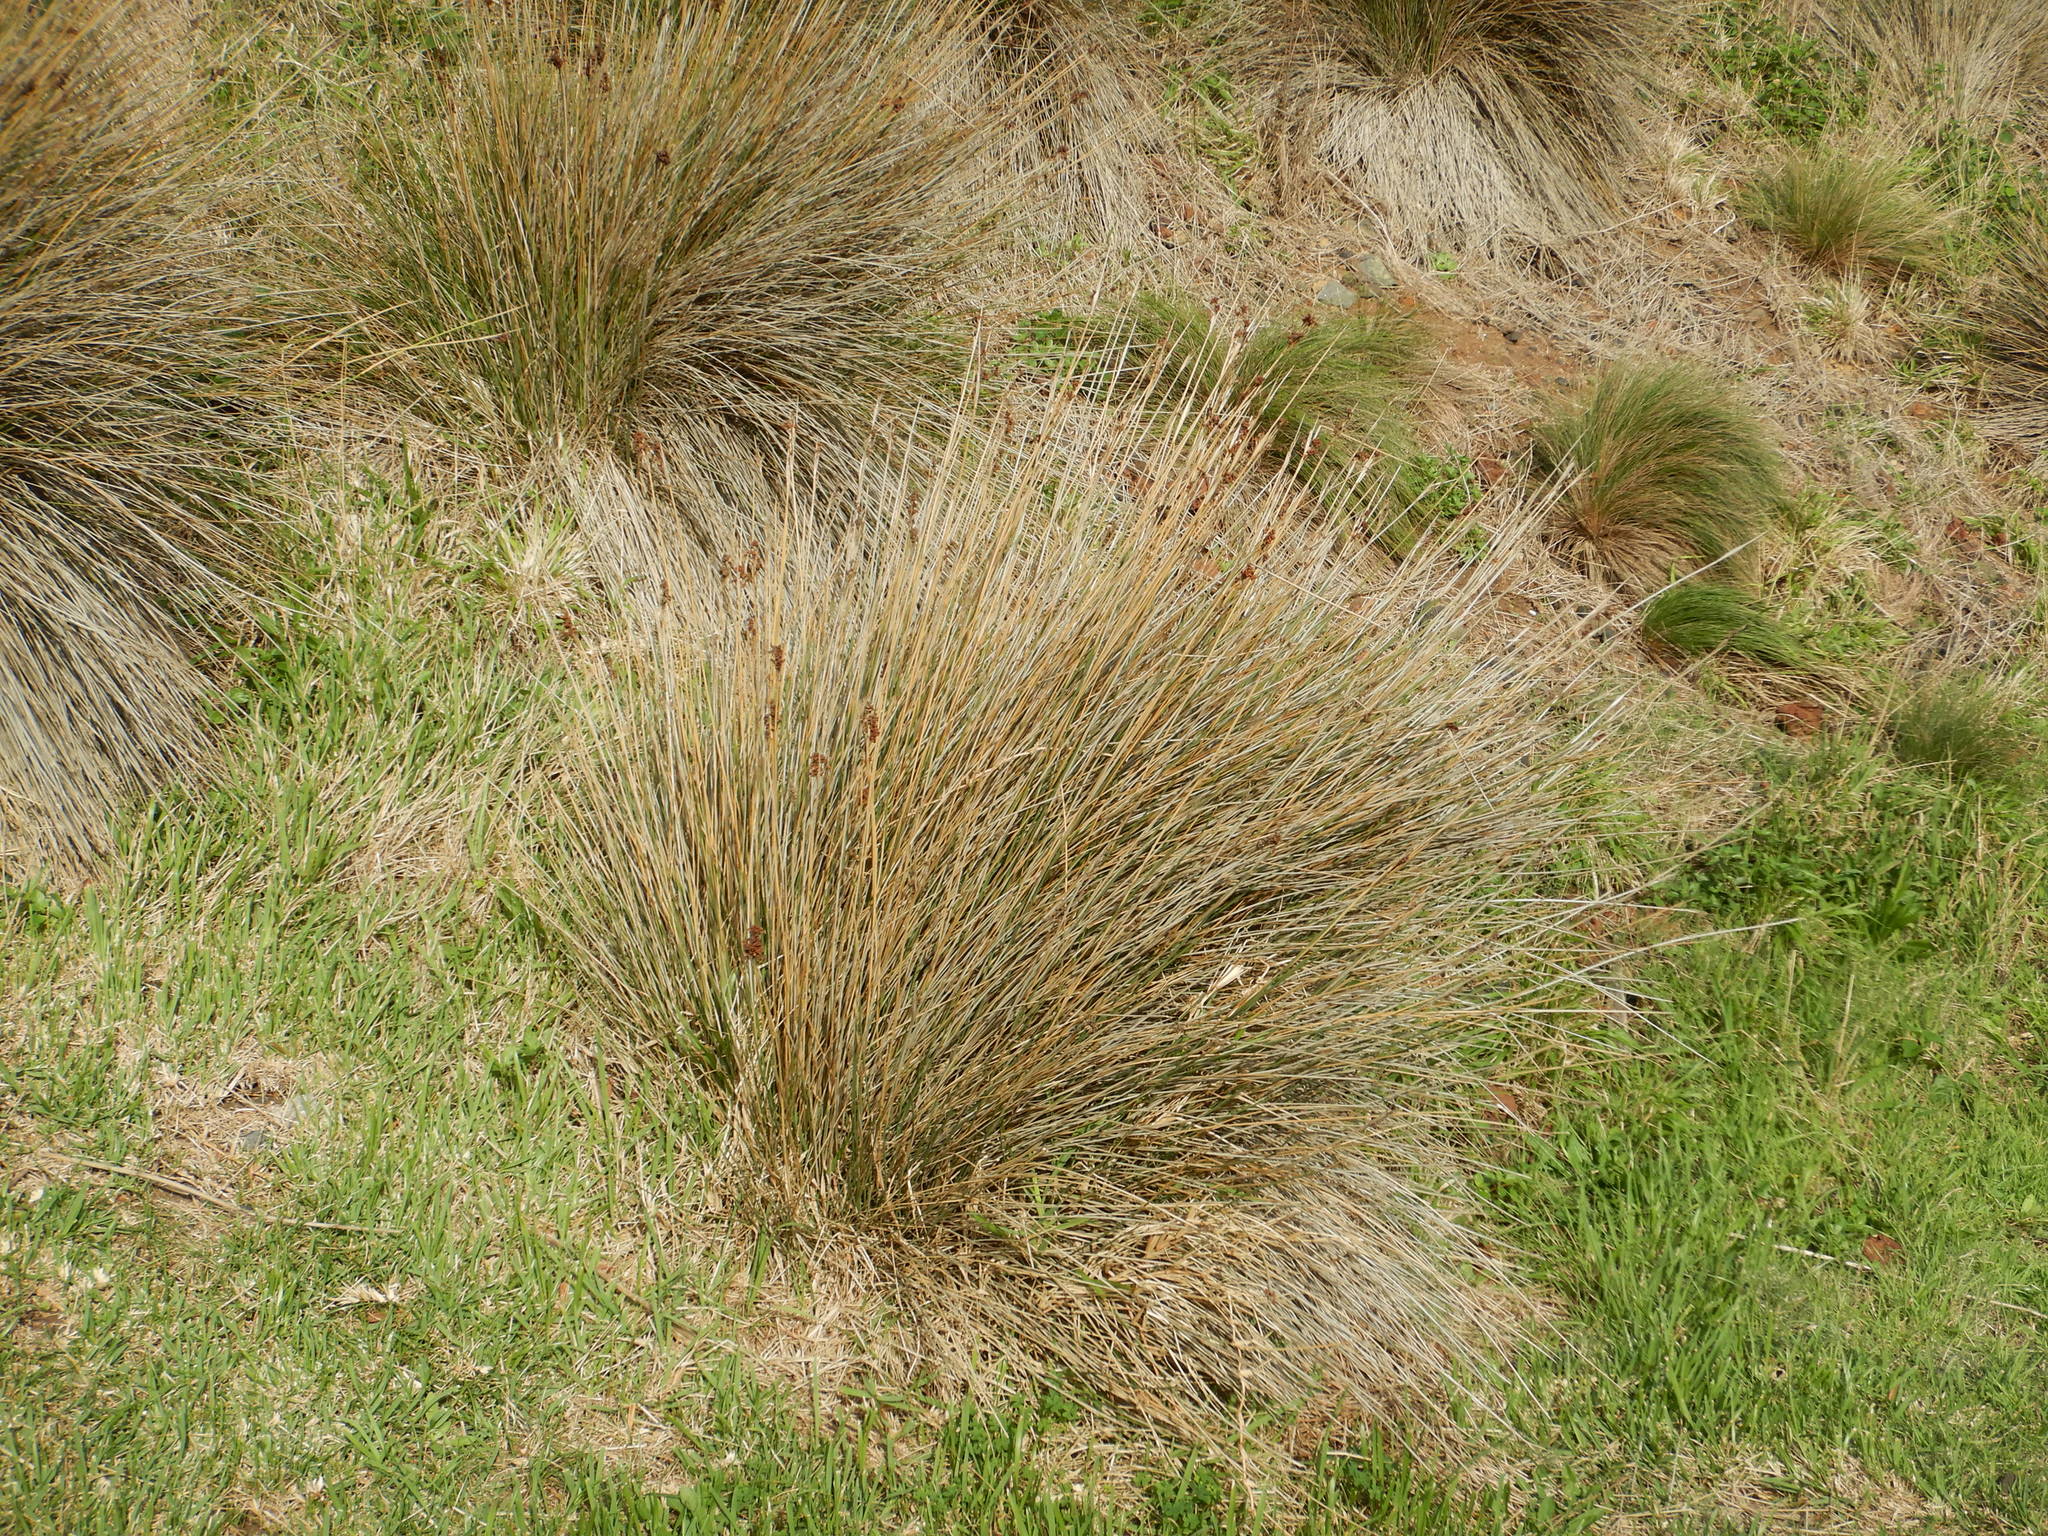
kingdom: Plantae
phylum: Tracheophyta
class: Liliopsida
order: Poales
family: Juncaceae
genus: Juncus
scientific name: Juncus acutus
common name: Sharp rush
